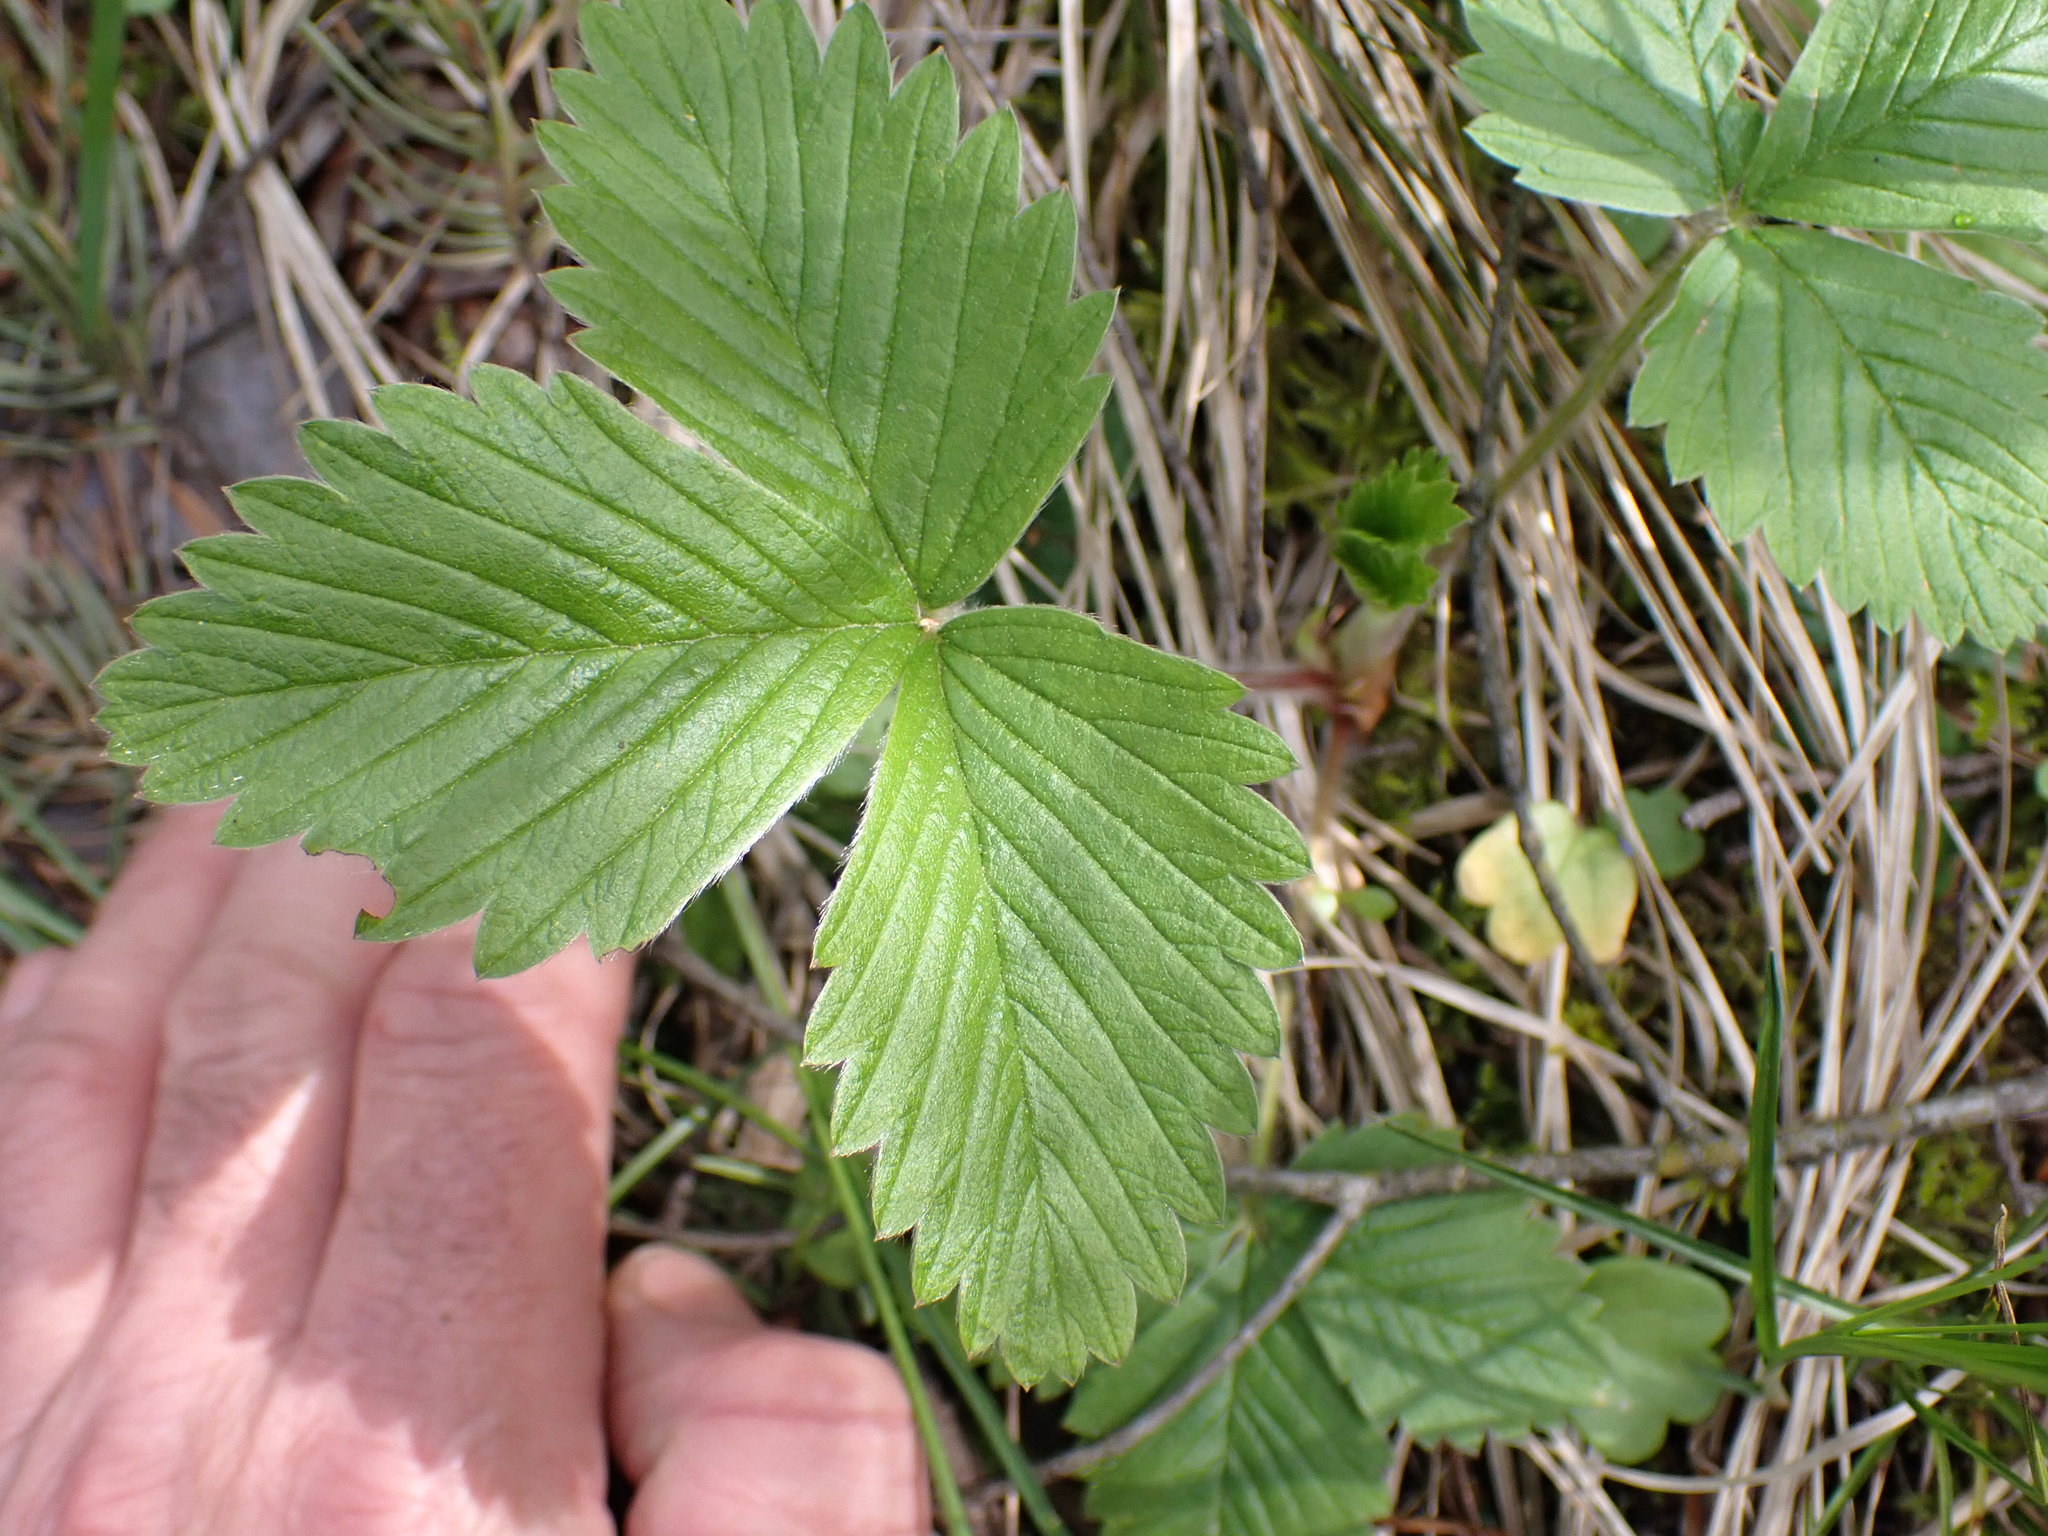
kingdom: Plantae
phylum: Tracheophyta
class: Magnoliopsida
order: Rosales
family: Rosaceae
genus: Fragaria
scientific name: Fragaria vesca
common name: Wild strawberry
